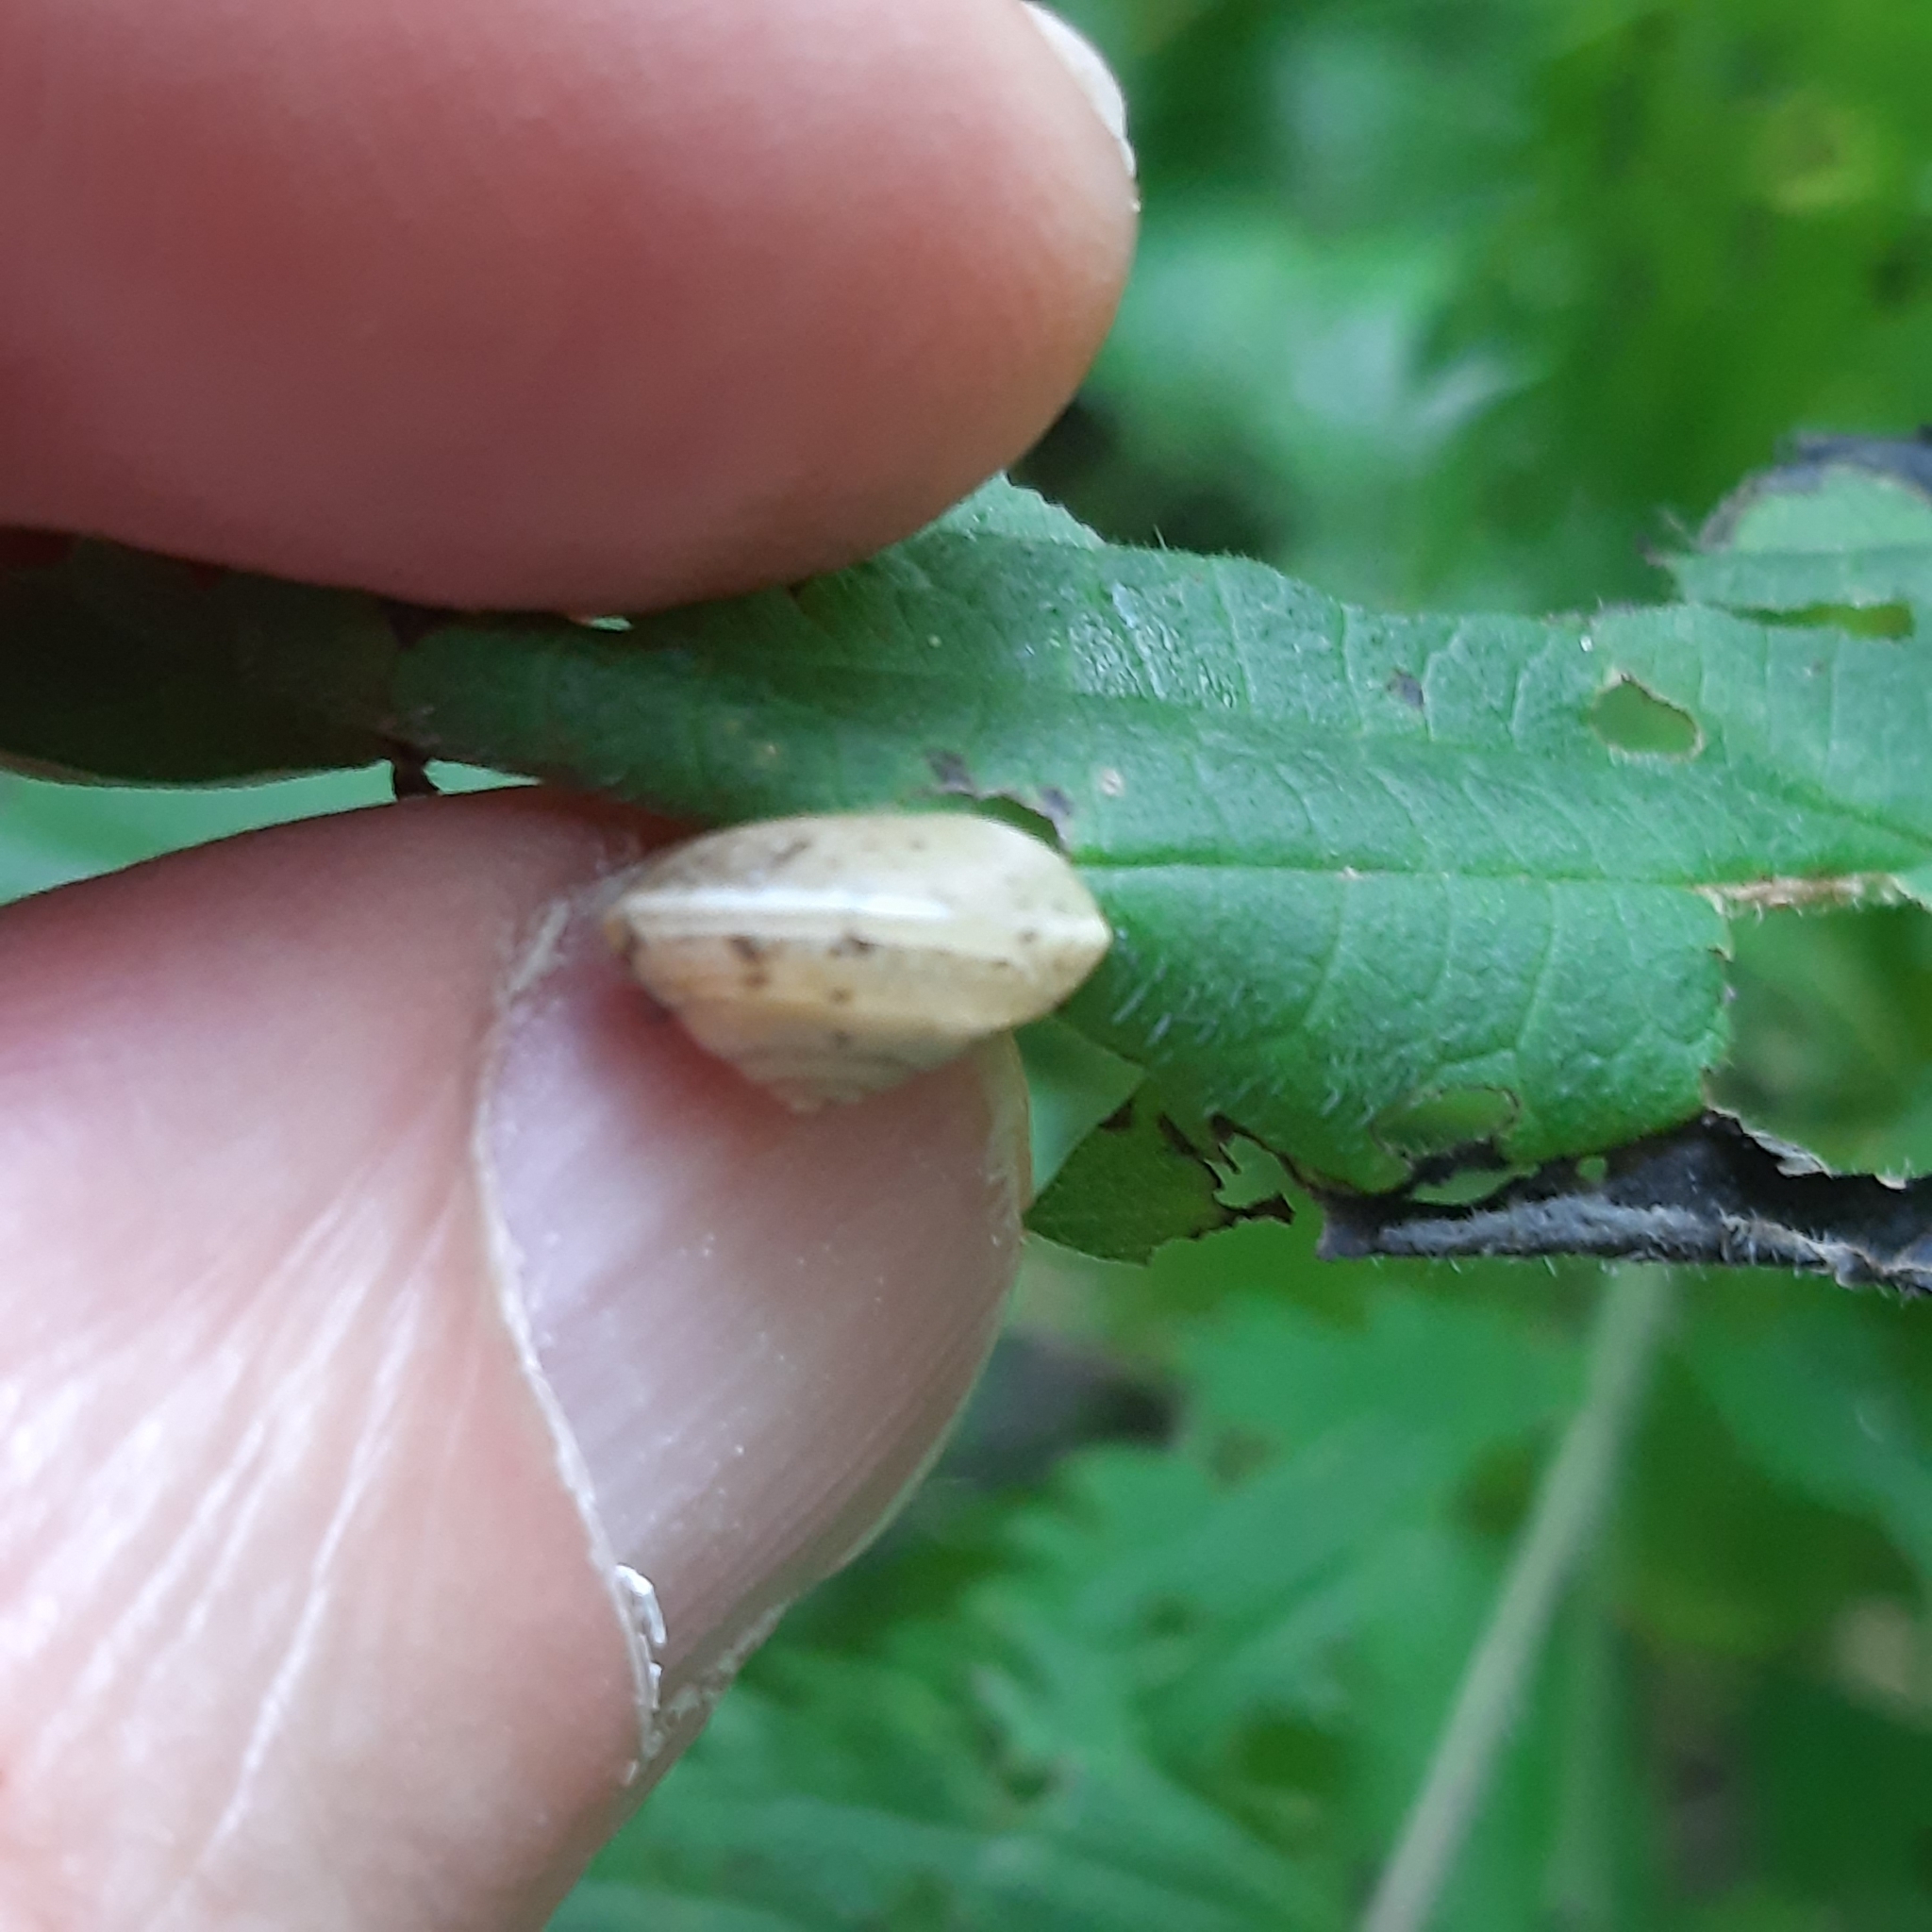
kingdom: Animalia
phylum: Mollusca
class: Gastropoda
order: Stylommatophora
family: Hygromiidae
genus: Hygromia
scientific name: Hygromia cinctella
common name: Girdled snail
